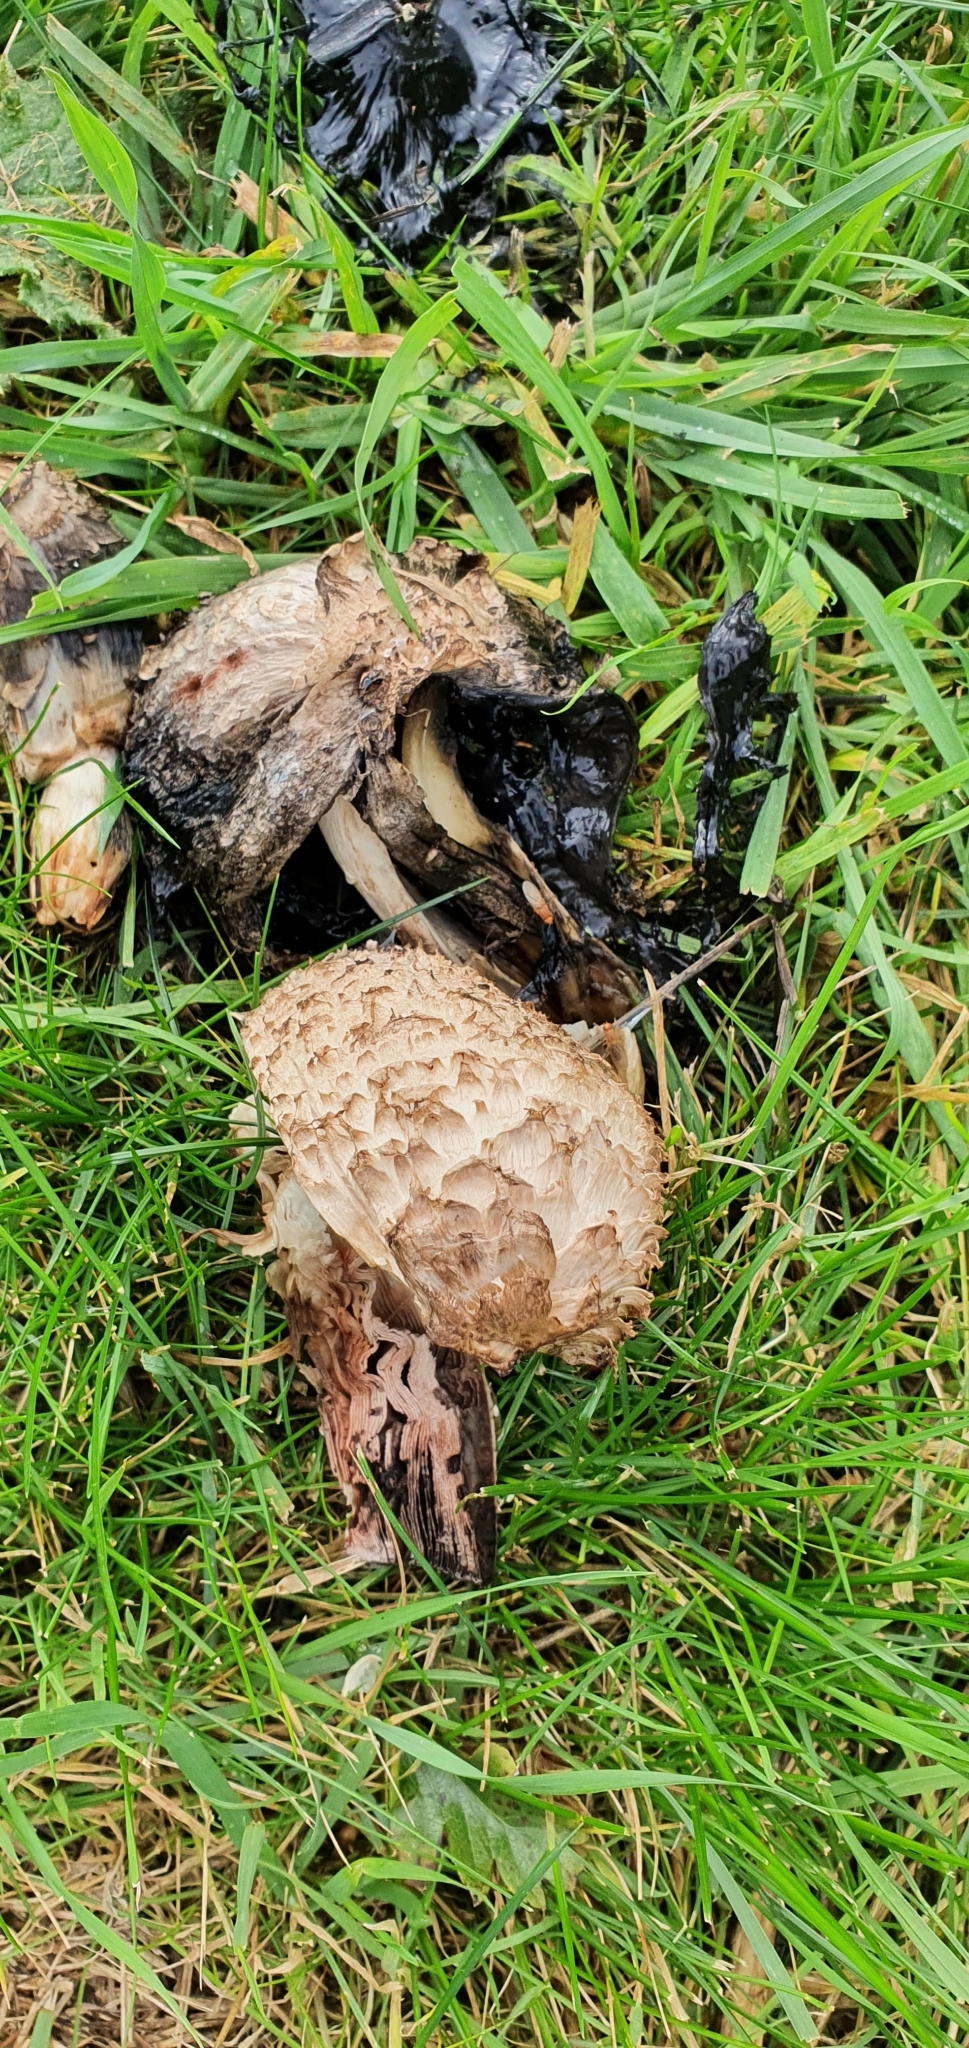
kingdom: Fungi
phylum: Basidiomycota
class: Agaricomycetes
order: Agaricales
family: Agaricaceae
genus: Coprinus
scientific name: Coprinus comatus
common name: Lawyer's wig
